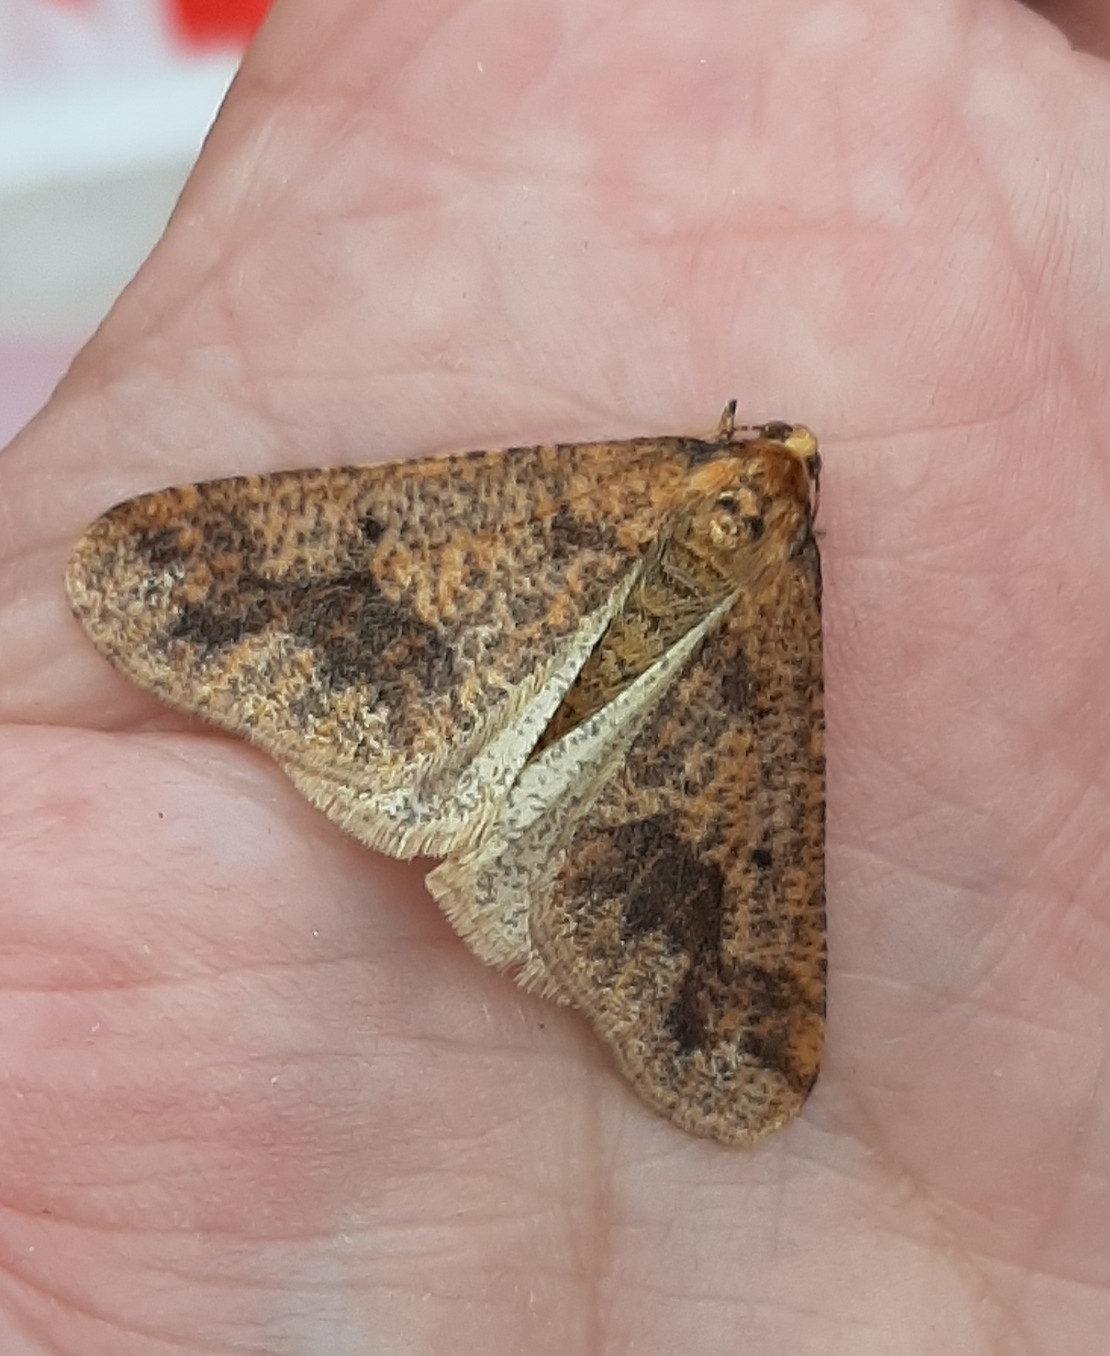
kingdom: Animalia
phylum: Arthropoda
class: Insecta
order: Lepidoptera
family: Geometridae
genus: Erannis
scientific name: Erannis defoliaria
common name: Mottled umber
